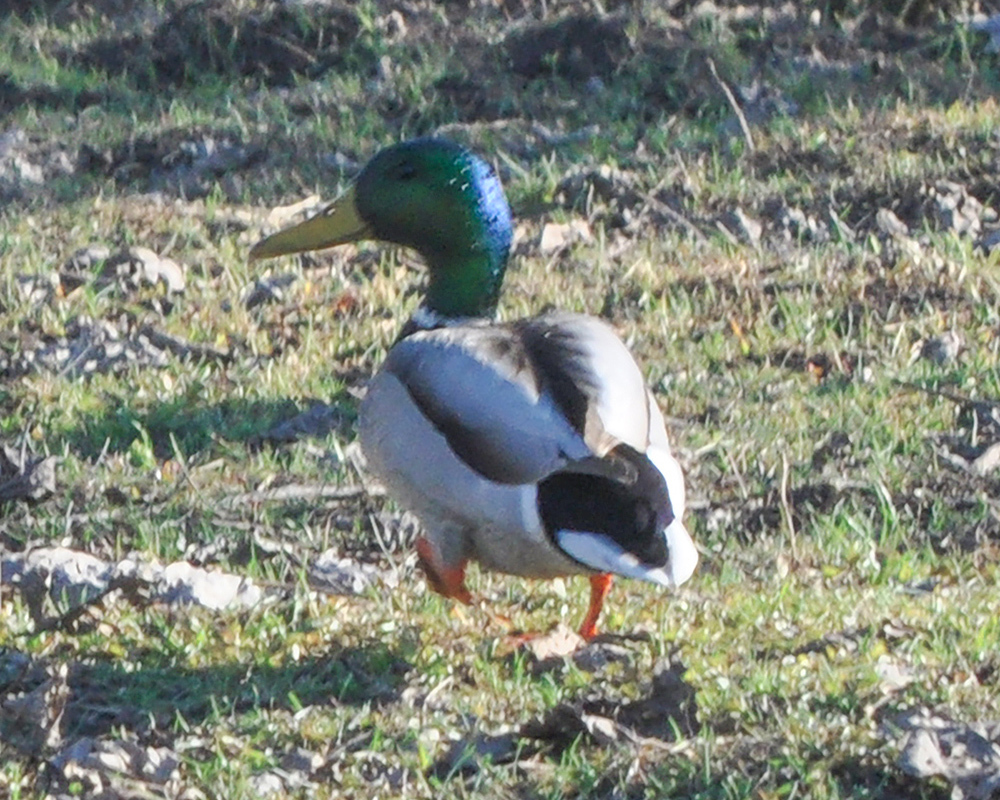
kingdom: Animalia
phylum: Chordata
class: Aves
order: Anseriformes
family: Anatidae
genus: Anas
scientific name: Anas platyrhynchos
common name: Mallard
